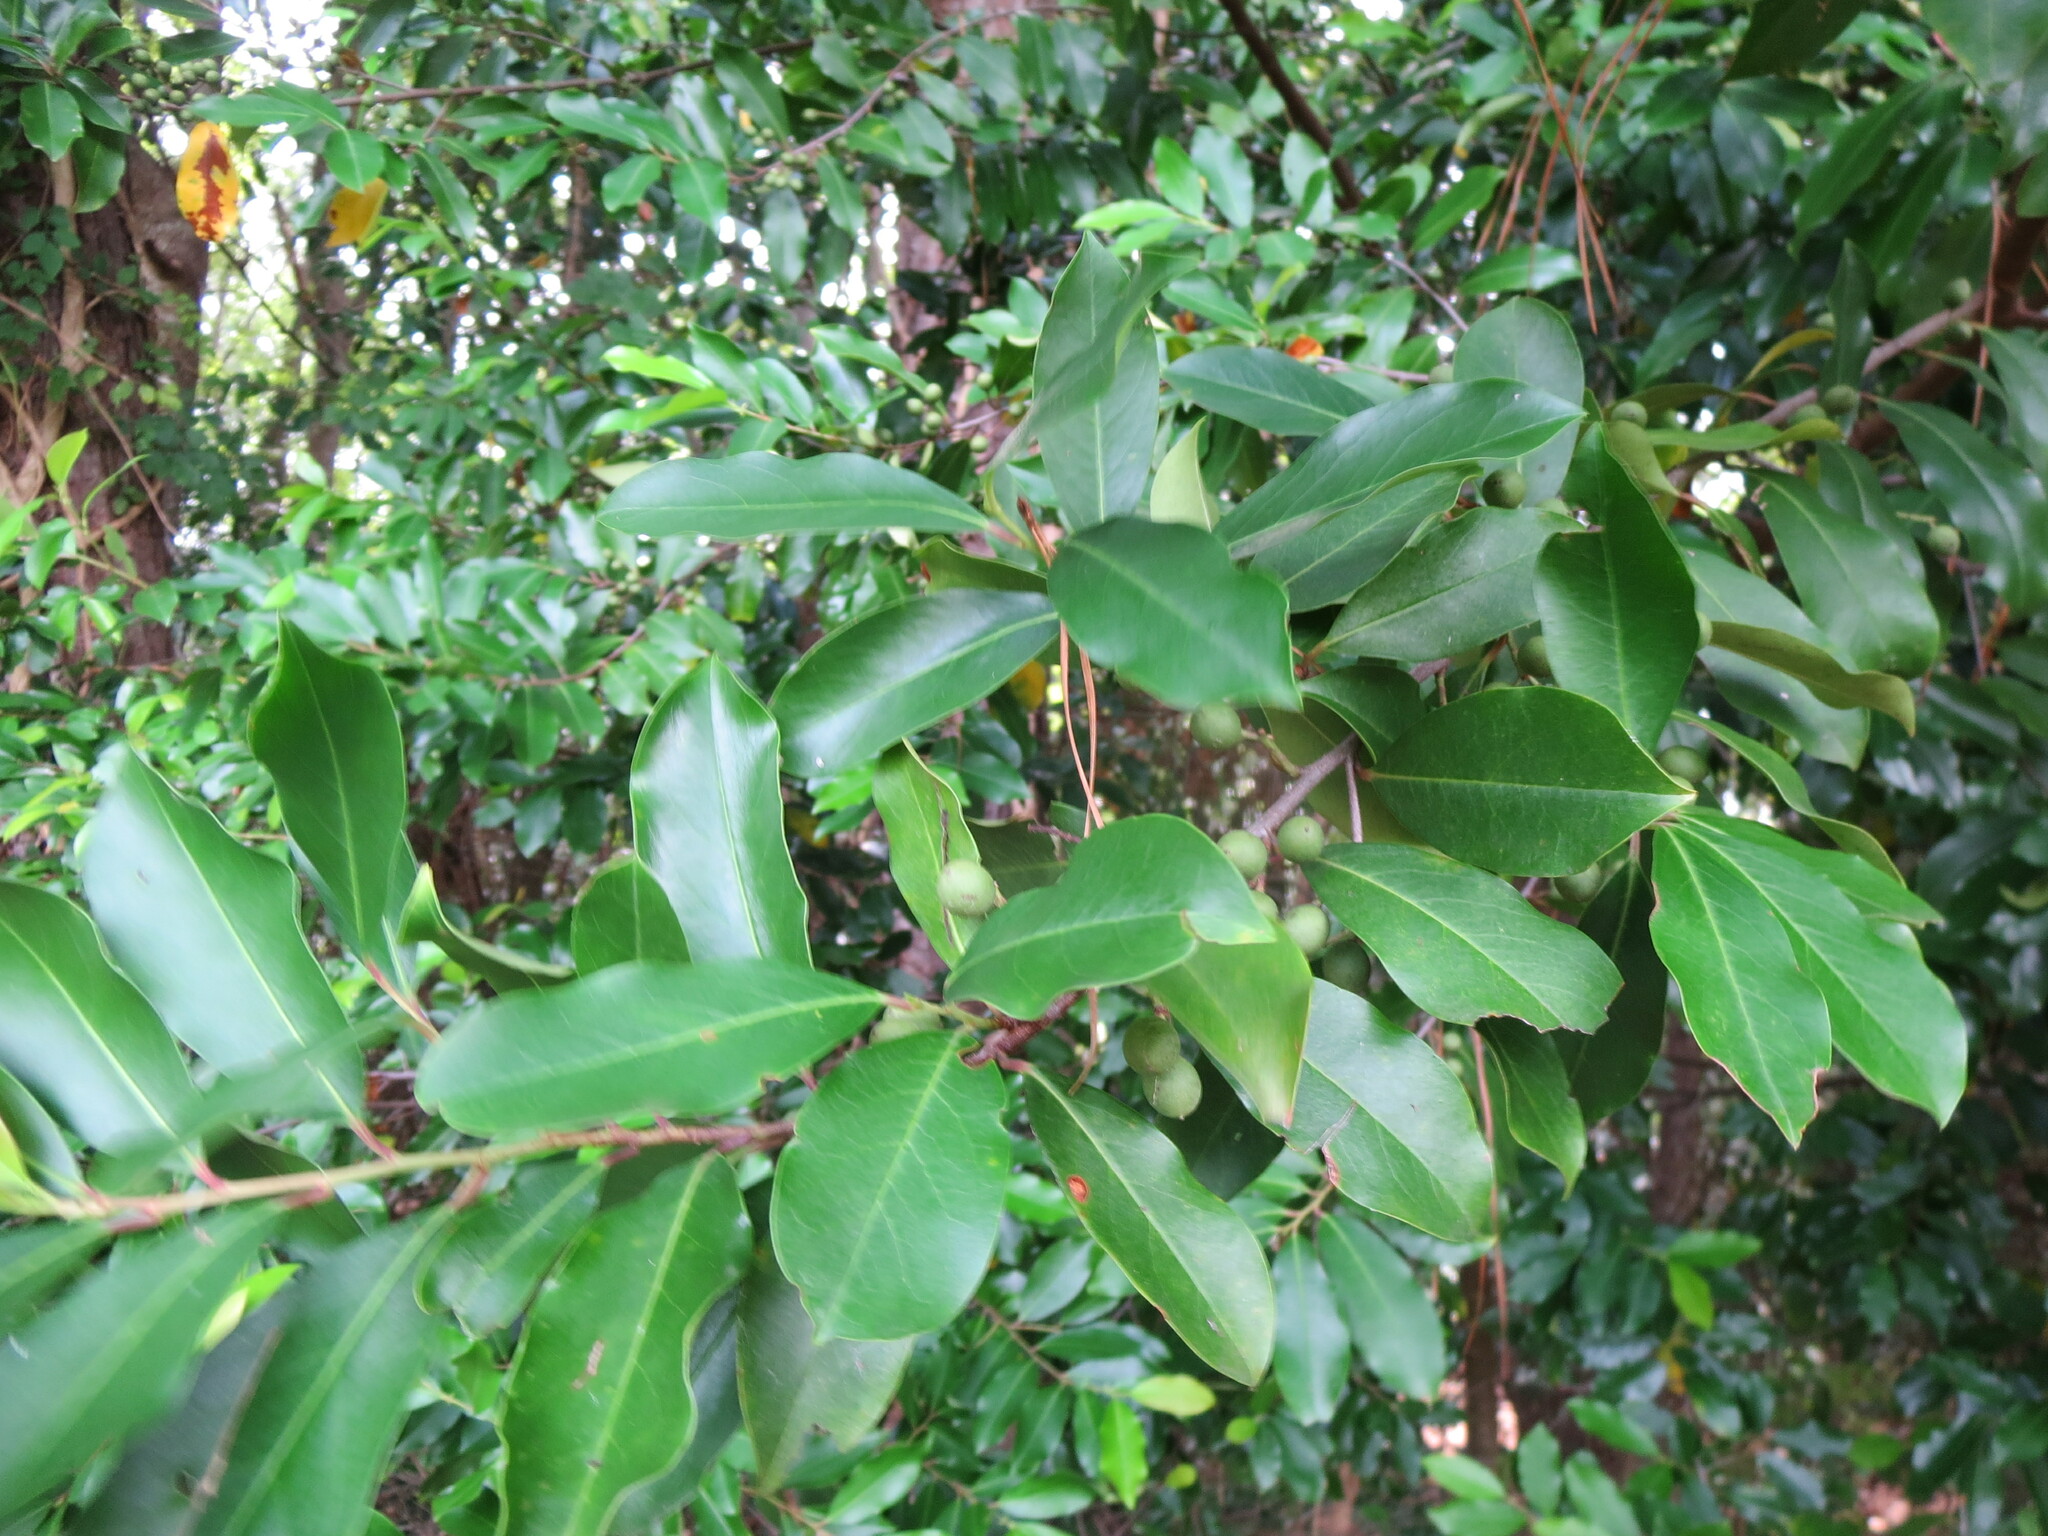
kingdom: Plantae
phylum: Tracheophyta
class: Magnoliopsida
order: Rosales
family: Rosaceae
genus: Prunus
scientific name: Prunus caroliniana
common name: Carolina laurel cherry
